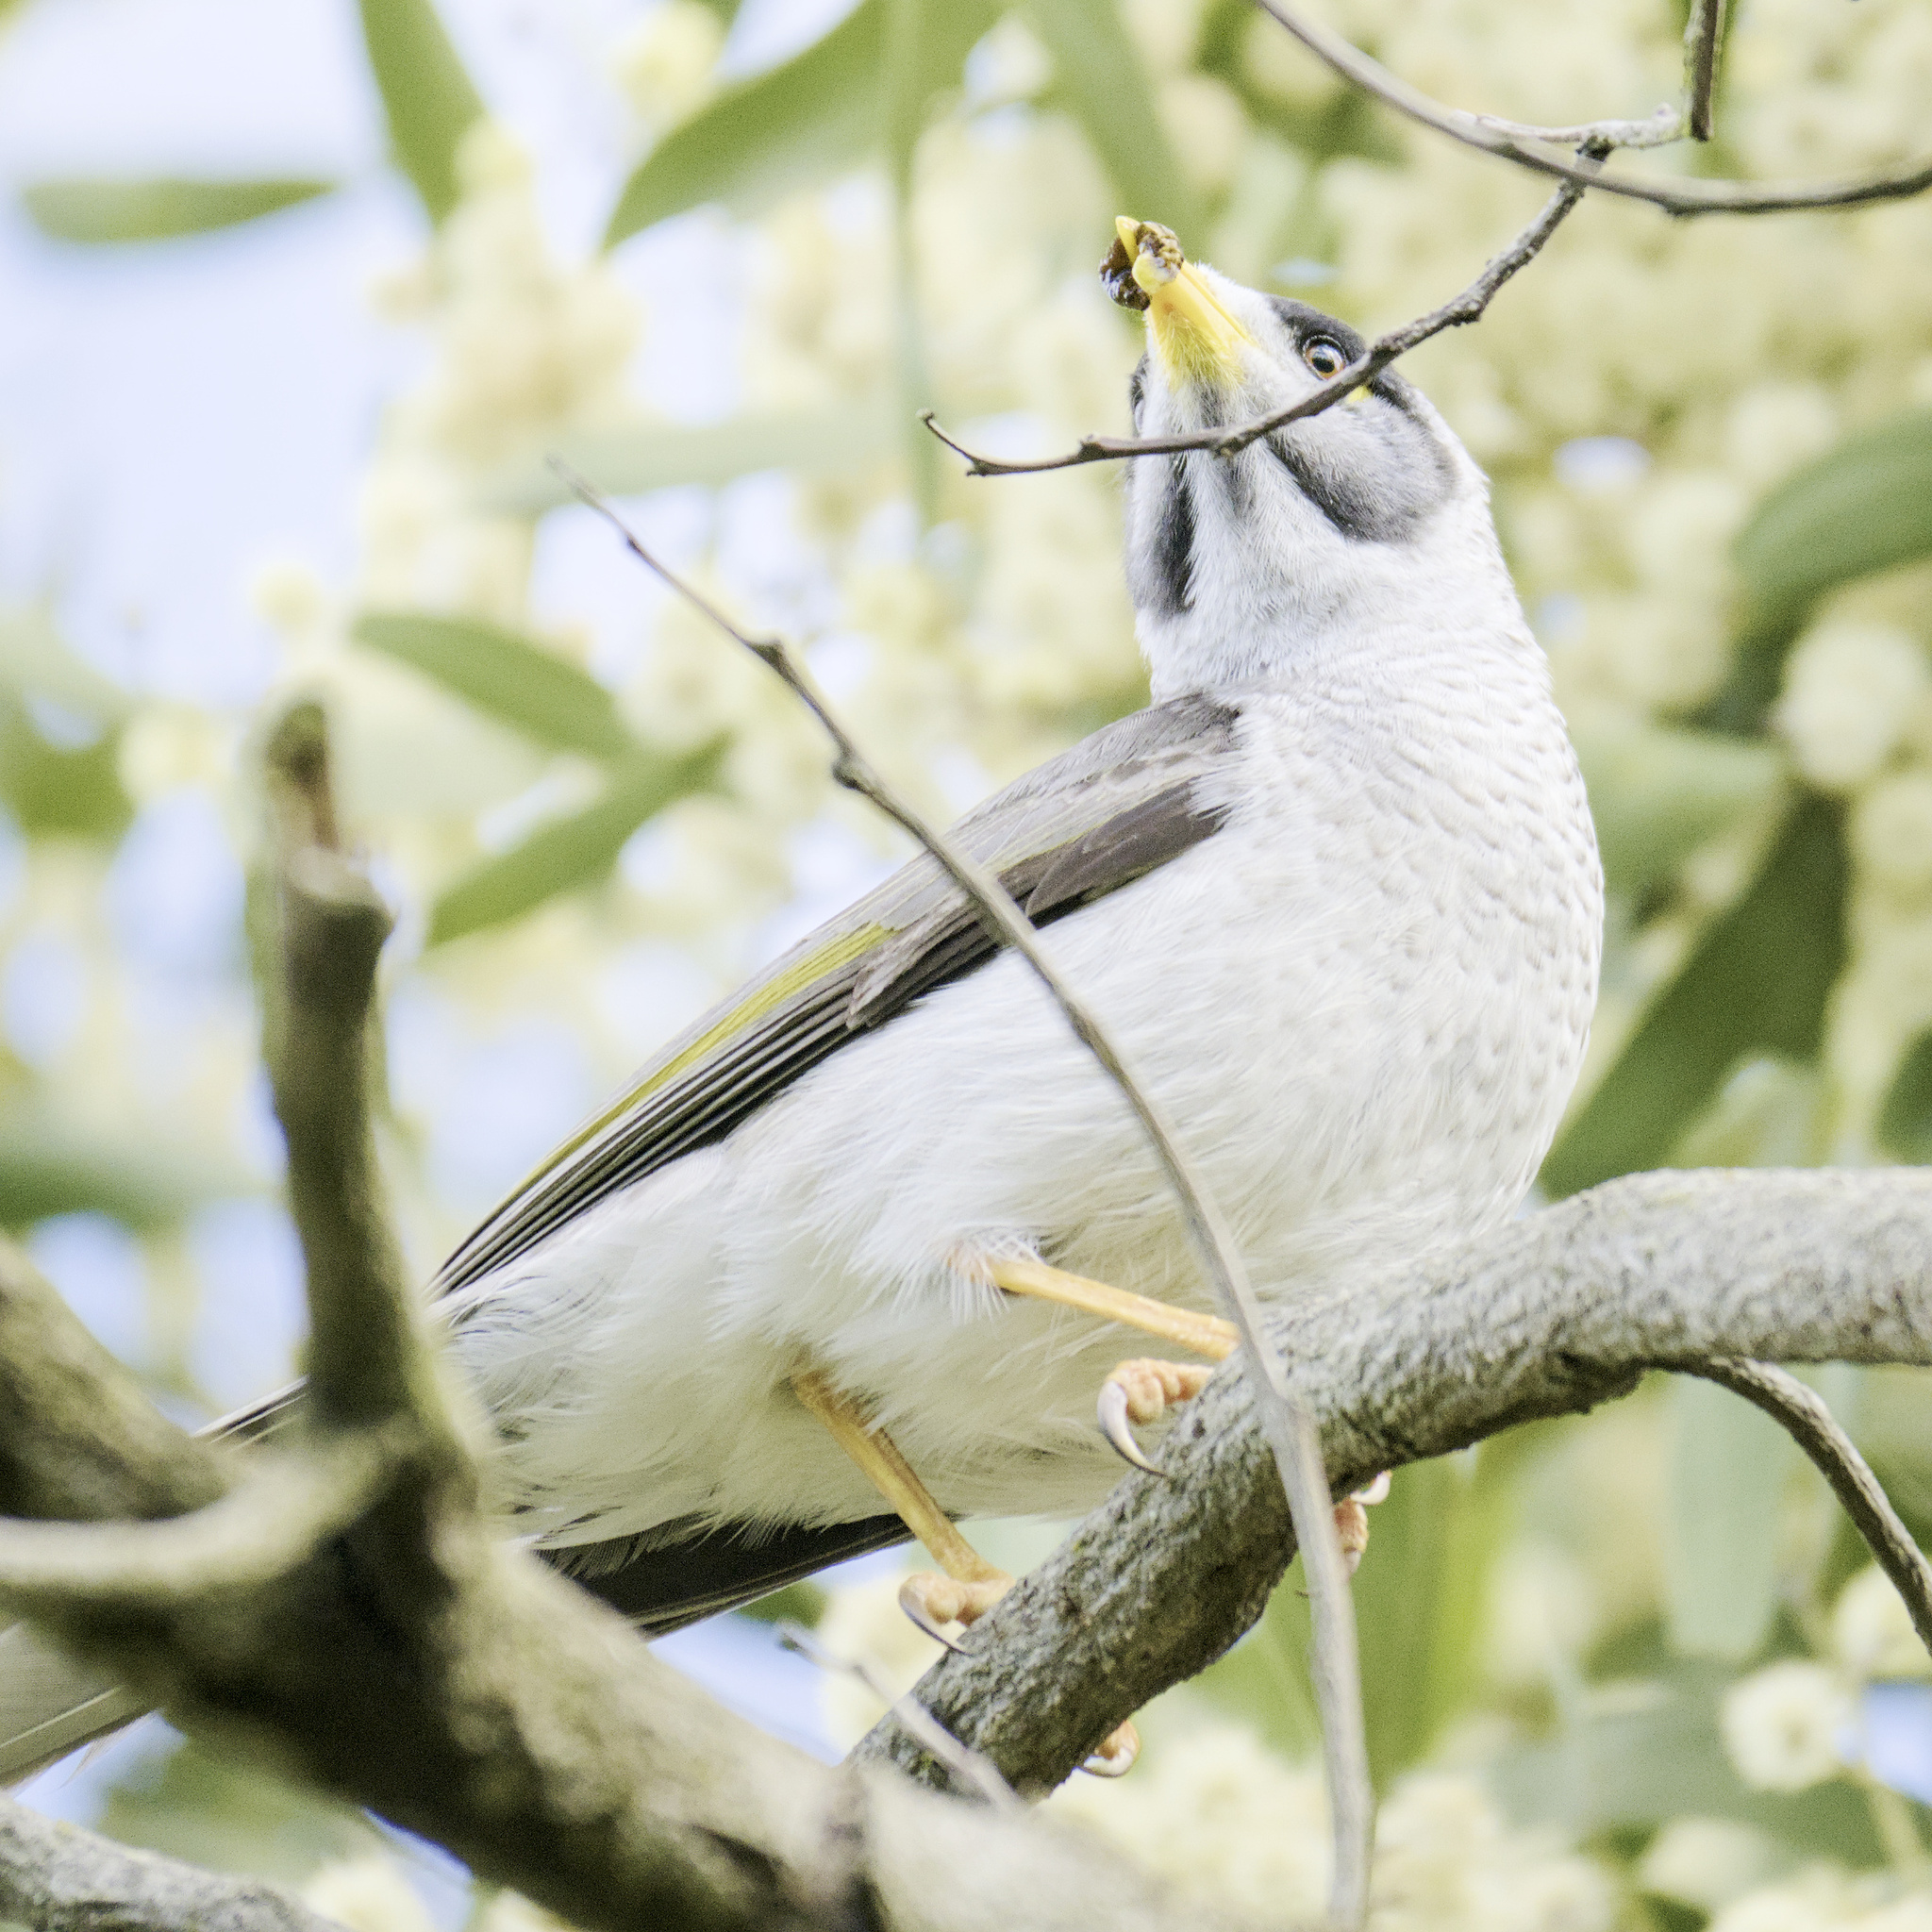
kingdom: Animalia
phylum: Chordata
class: Aves
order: Passeriformes
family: Meliphagidae
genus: Manorina
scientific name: Manorina melanocephala
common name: Noisy miner
